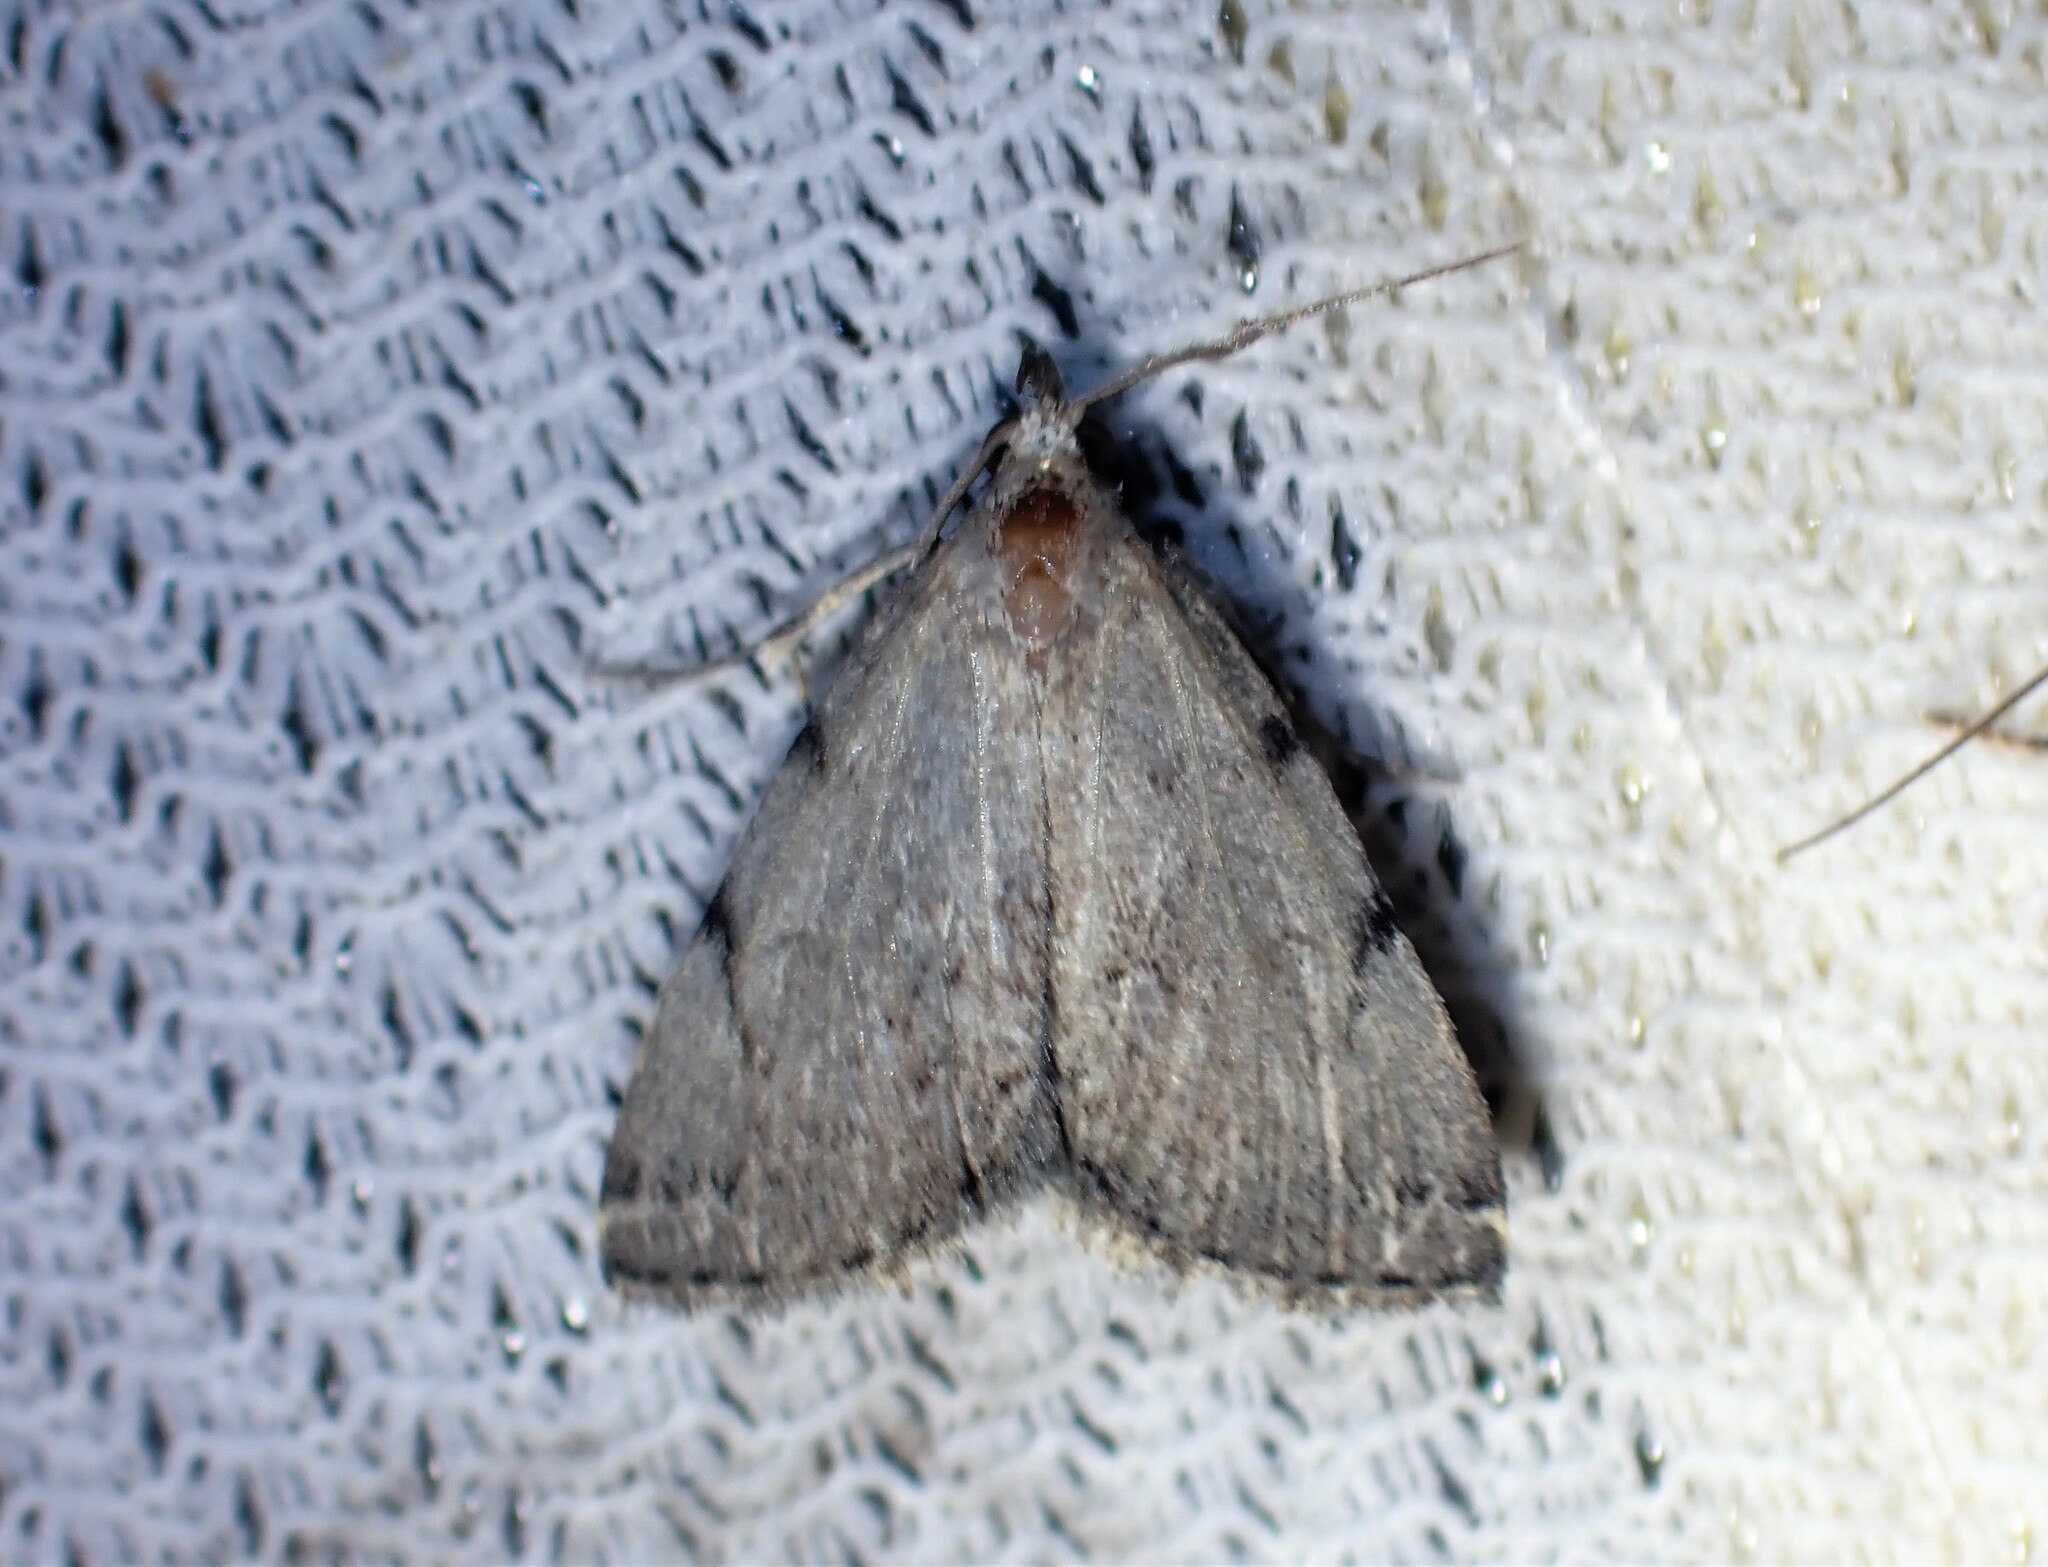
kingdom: Animalia
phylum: Arthropoda
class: Insecta
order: Lepidoptera
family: Erebidae
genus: Zanclognatha
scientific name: Zanclognatha theralis
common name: Flagged fan-foot
